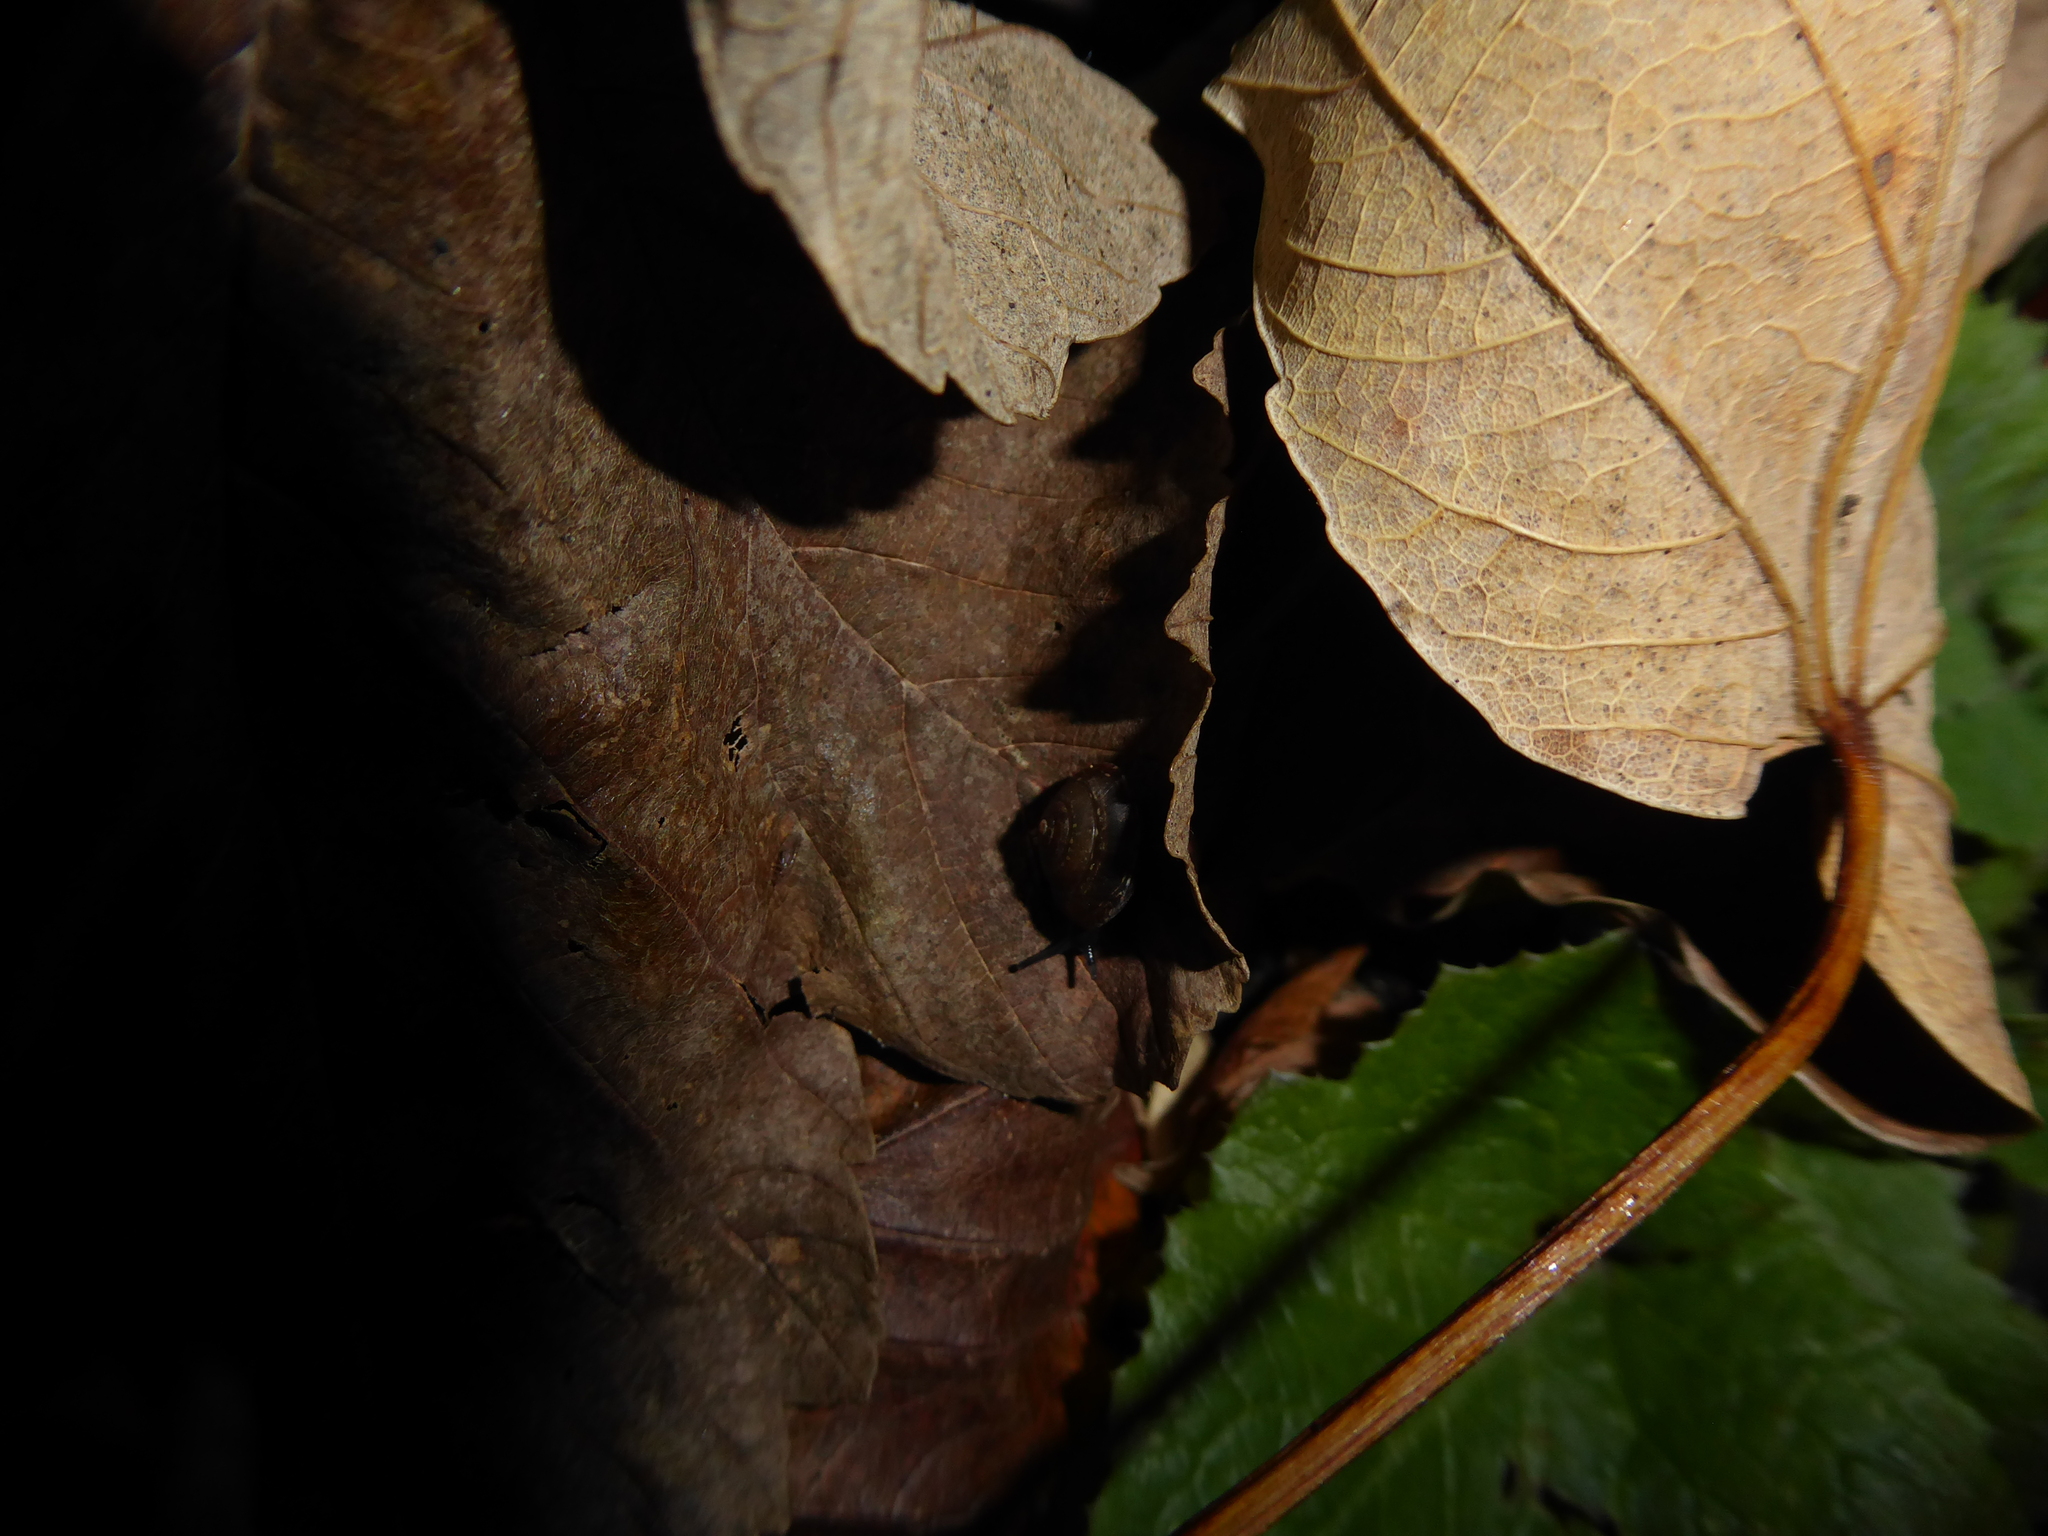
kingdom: Animalia
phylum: Mollusca
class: Gastropoda
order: Stylommatophora
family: Hygromiidae
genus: Hygromia
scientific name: Hygromia cinctella
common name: Girdled snail
